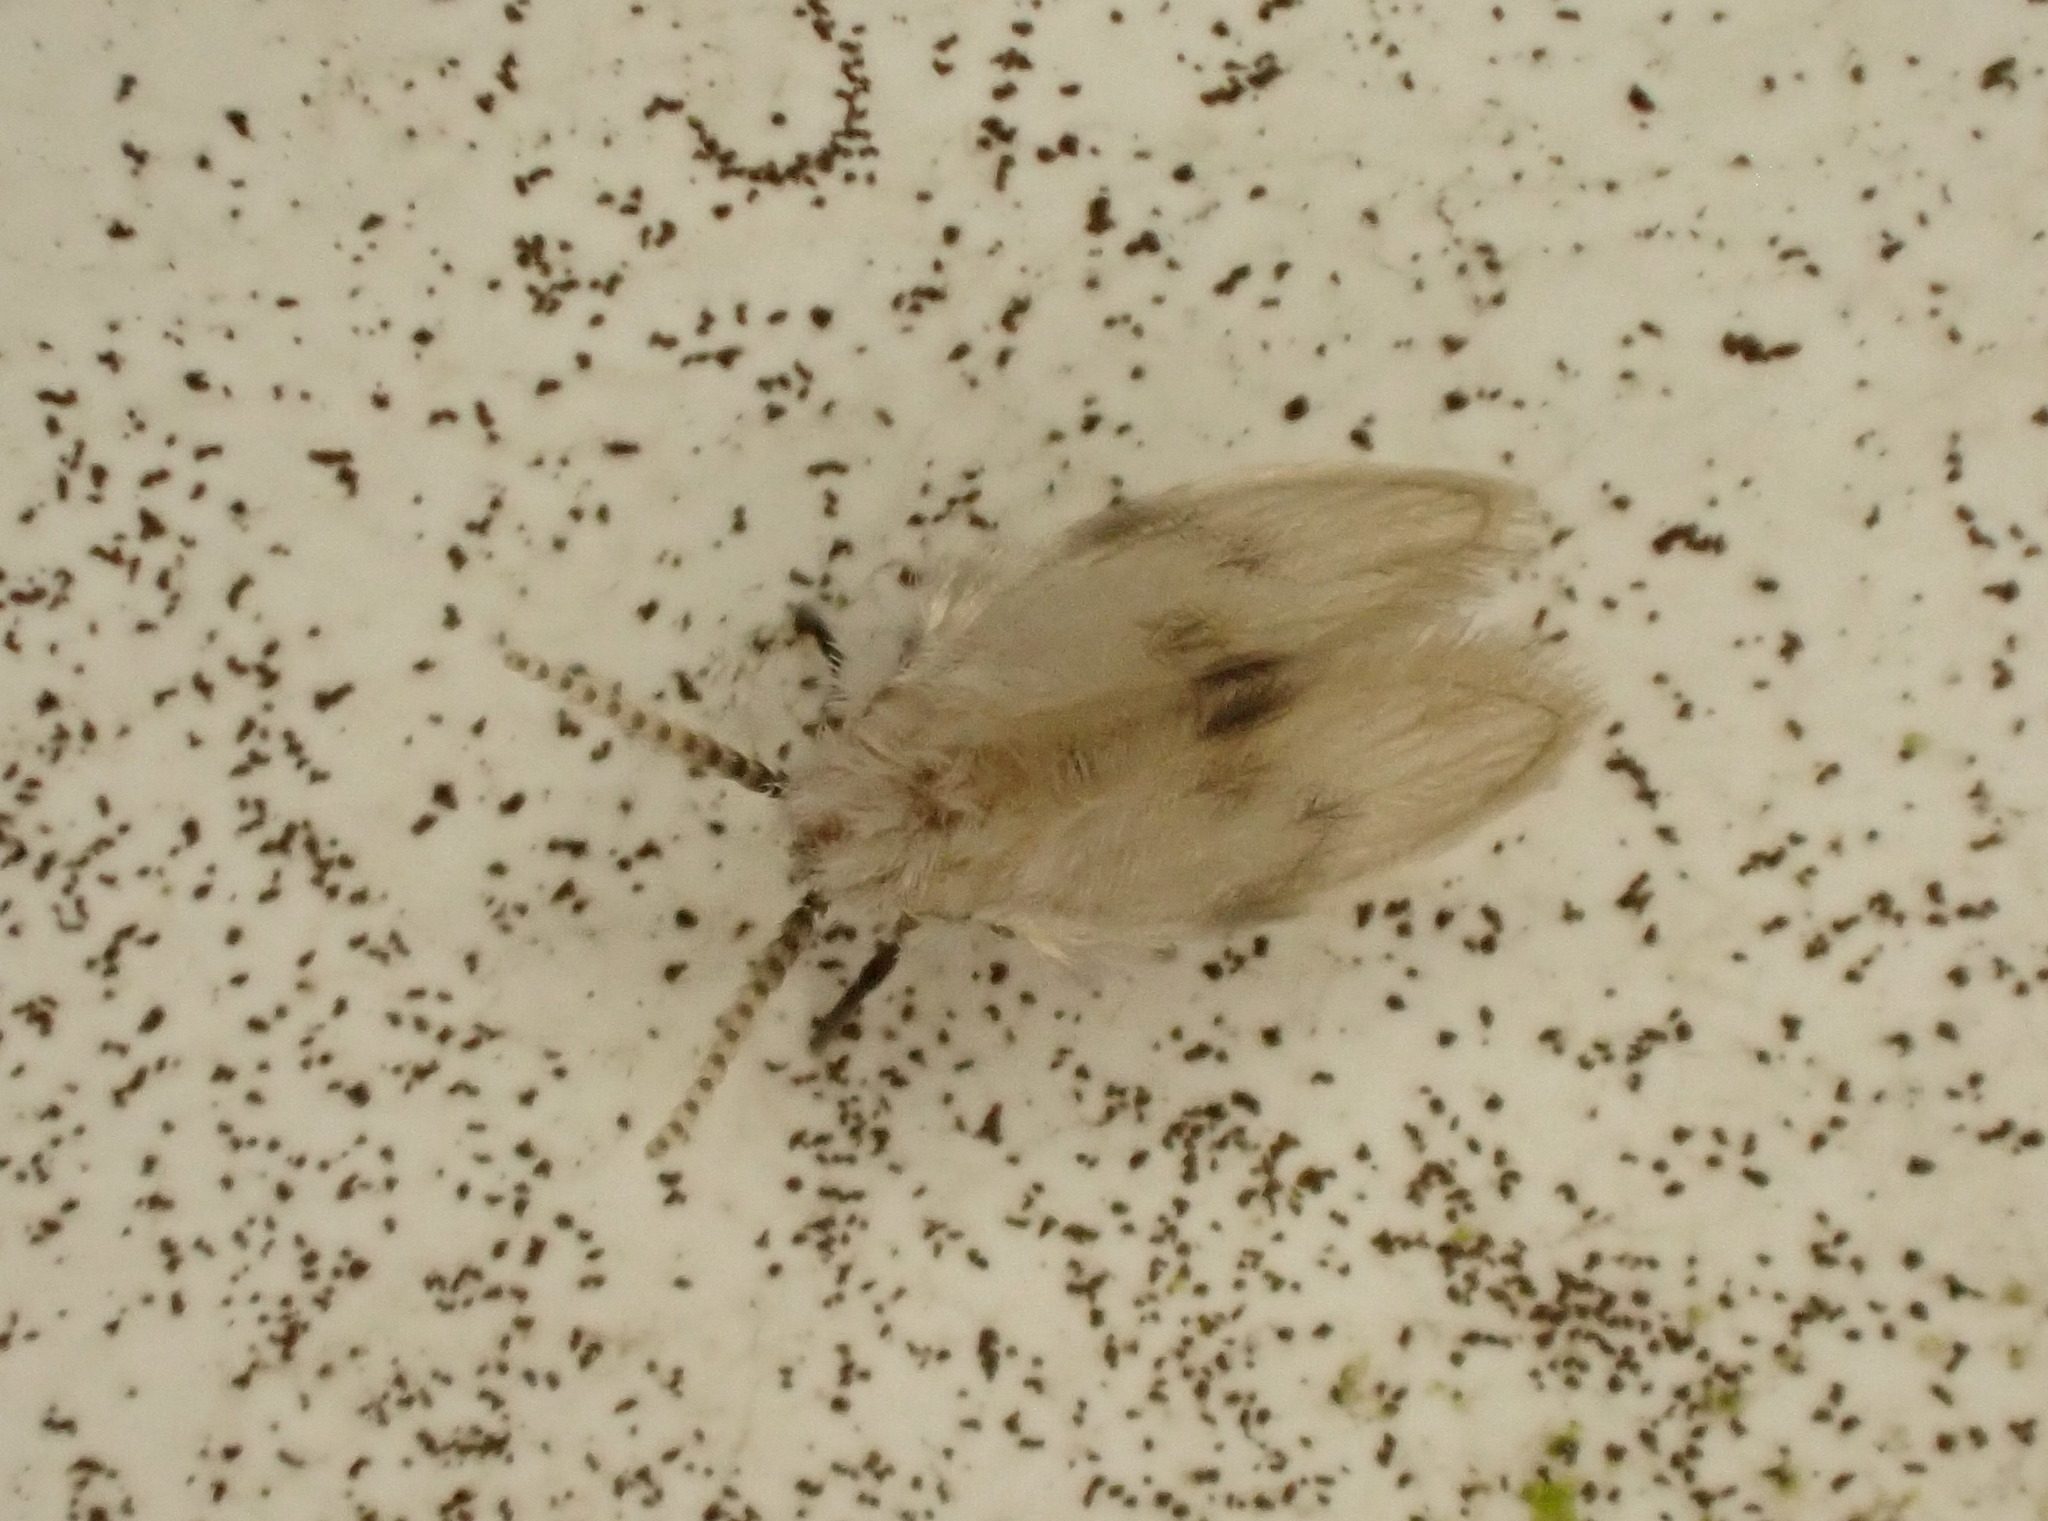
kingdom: Animalia
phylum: Arthropoda
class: Insecta
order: Diptera
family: Psychodidae
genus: Psychoda
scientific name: Psychoda sigma
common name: Moth fly
